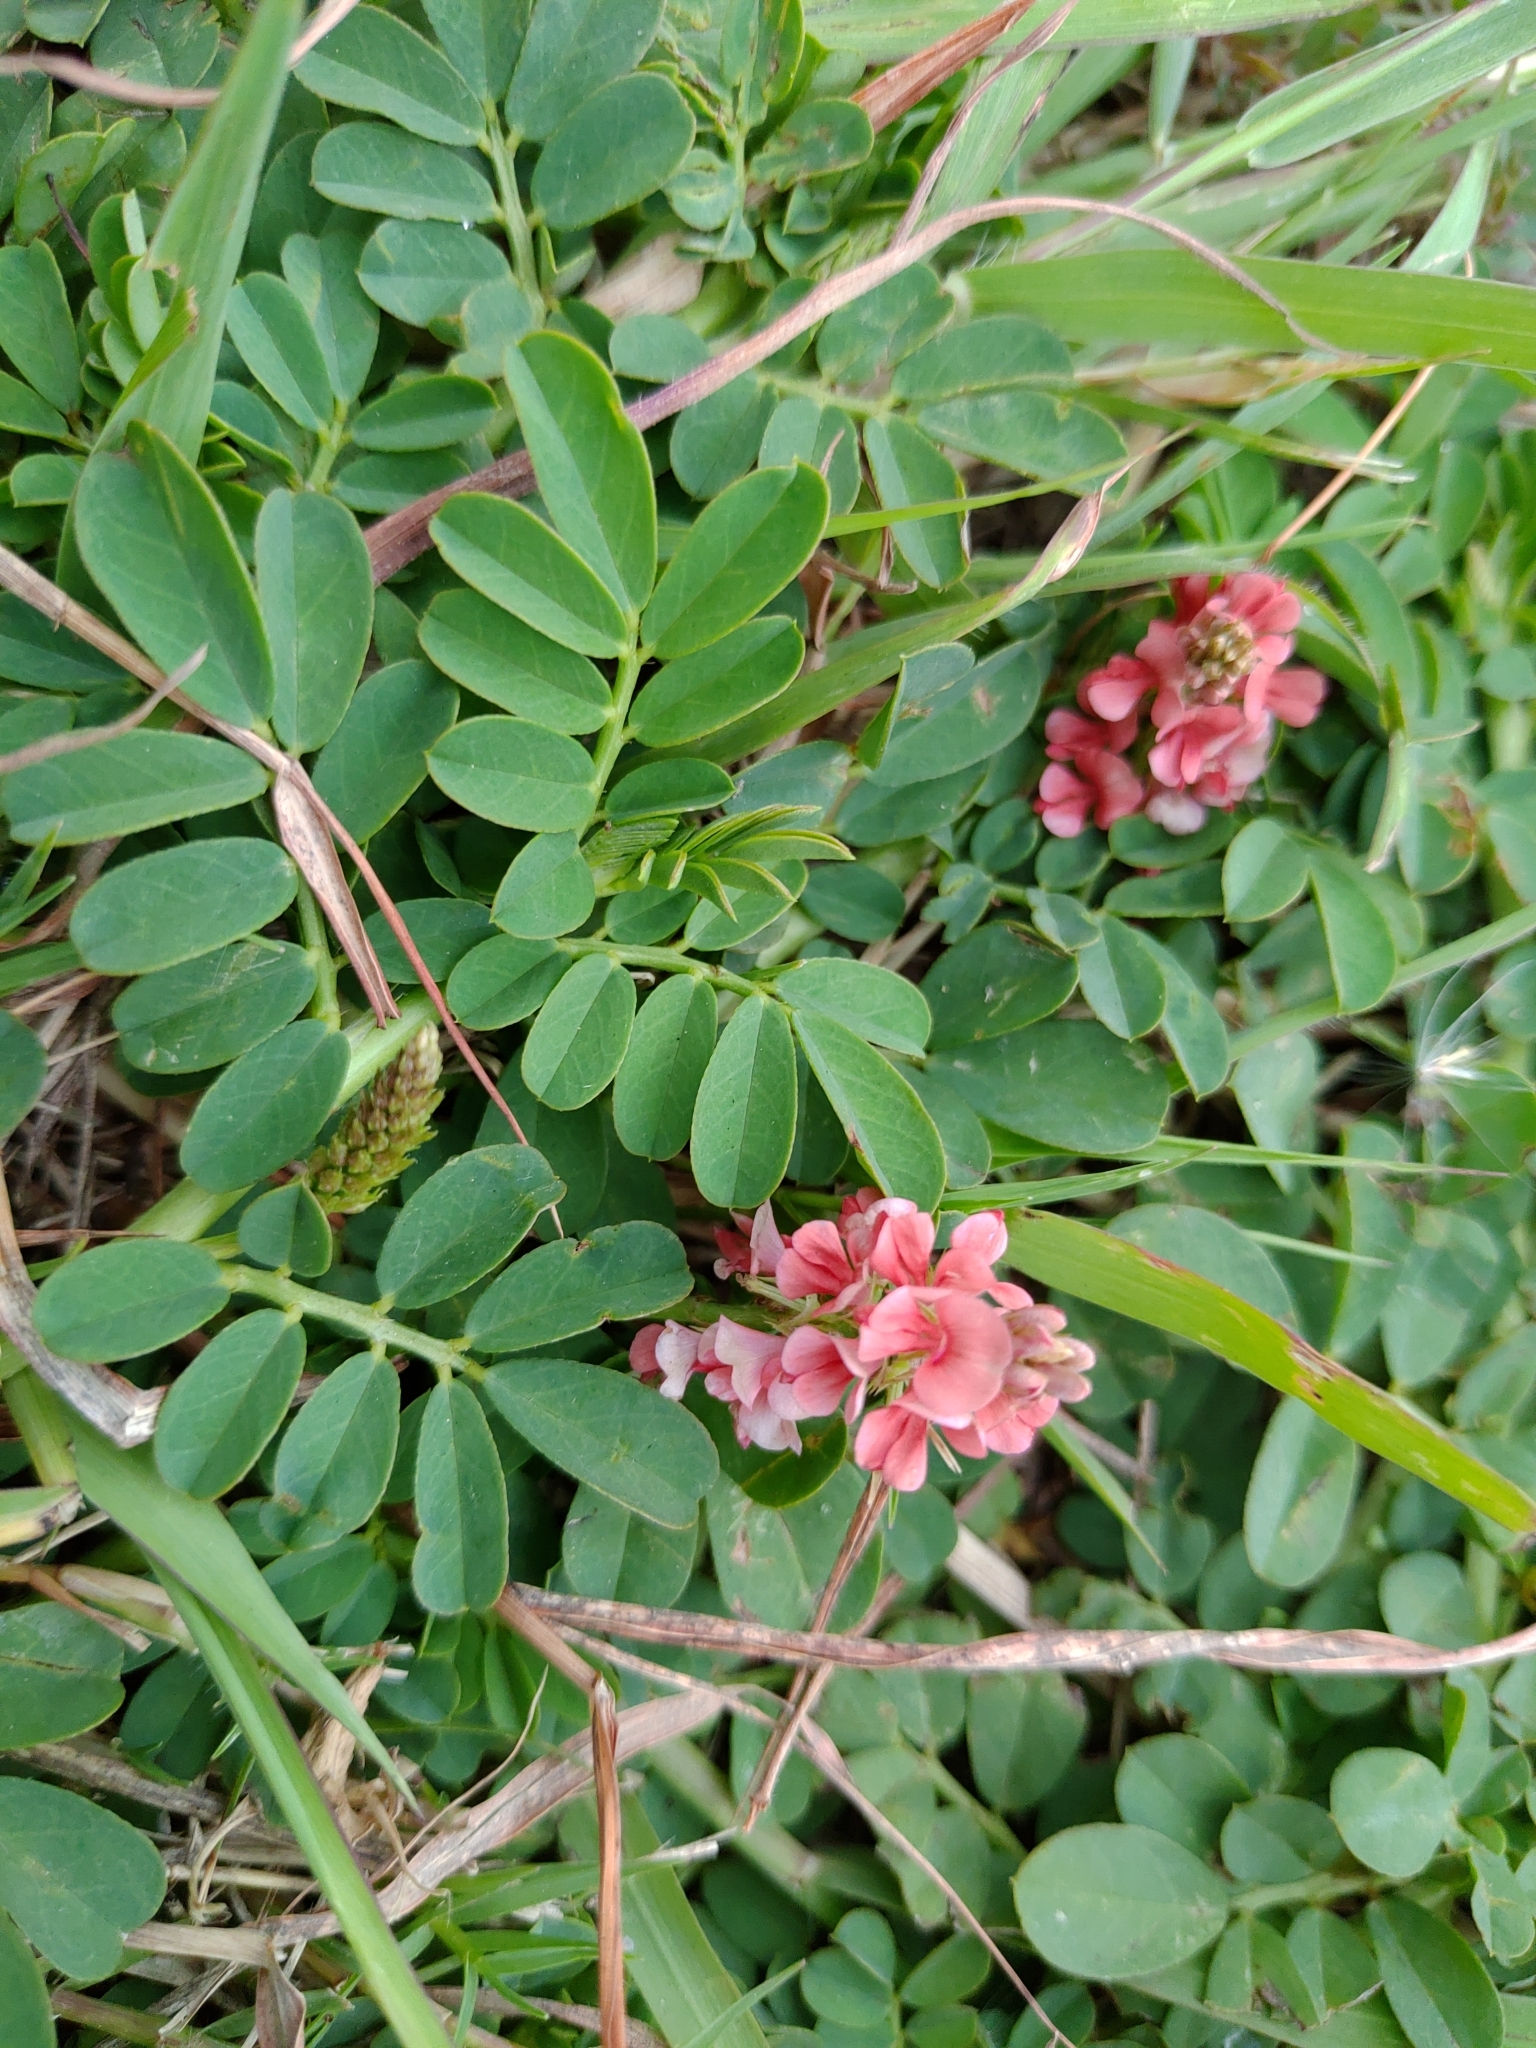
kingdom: Plantae
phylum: Tracheophyta
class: Magnoliopsida
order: Fabales
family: Fabaceae
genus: Indigofera
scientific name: Indigofera spicata
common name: Creeping indigo
